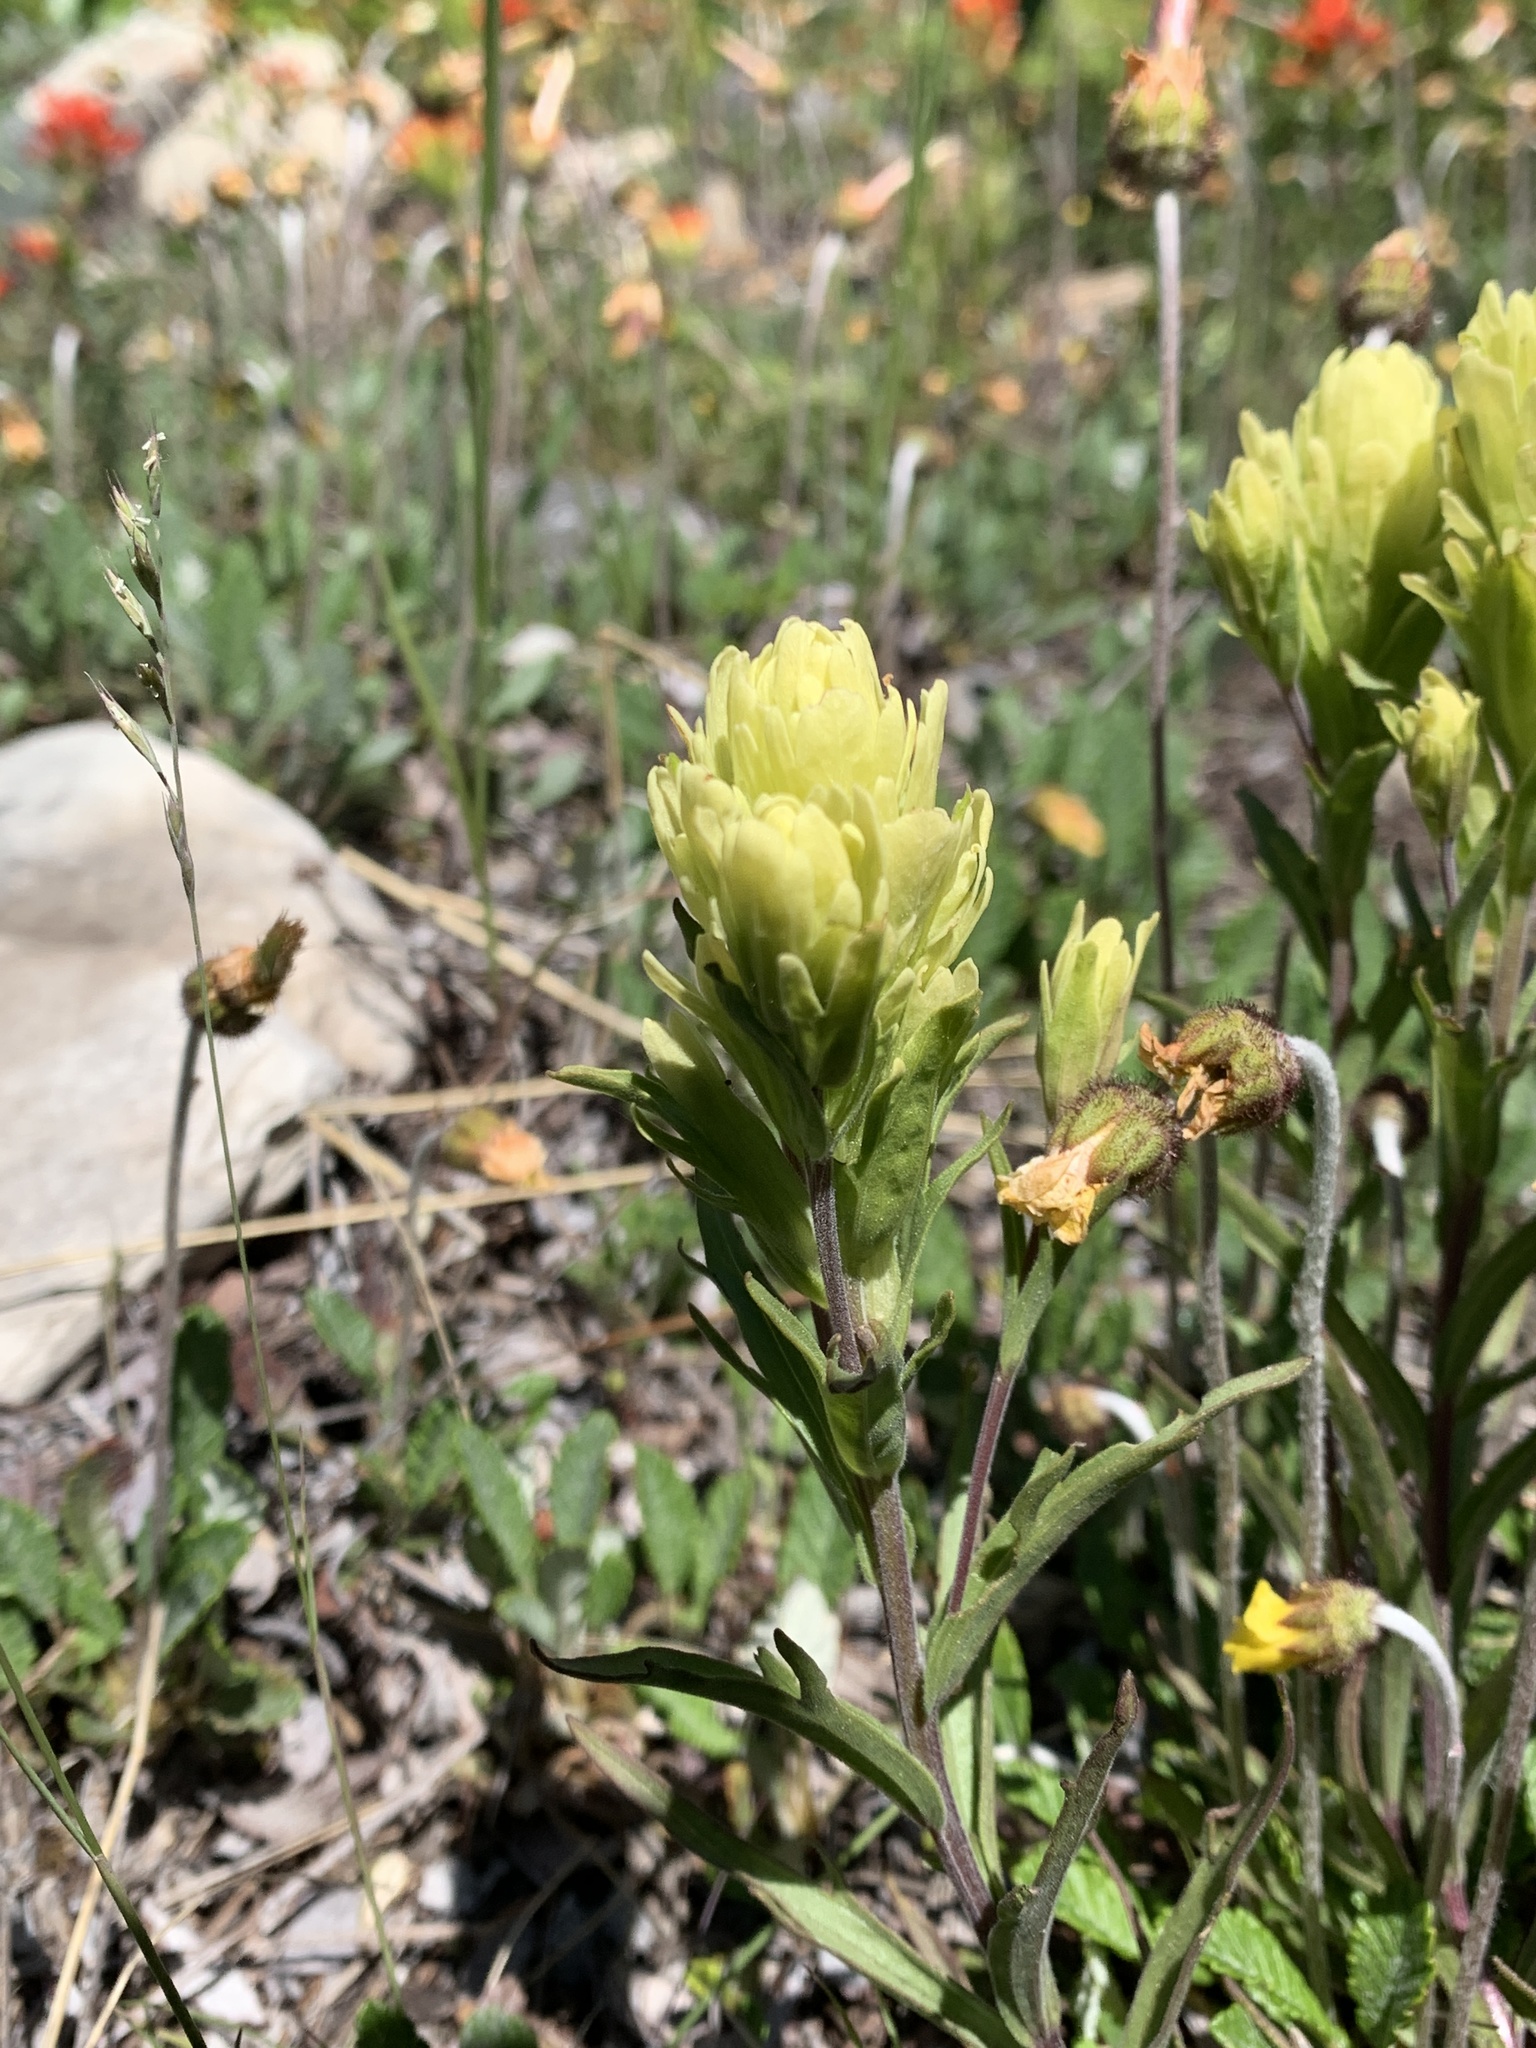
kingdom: Plantae
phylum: Tracheophyta
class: Magnoliopsida
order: Lamiales
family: Orobanchaceae
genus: Castilleja
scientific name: Castilleja lutescens
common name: Yellowish paintbrush
